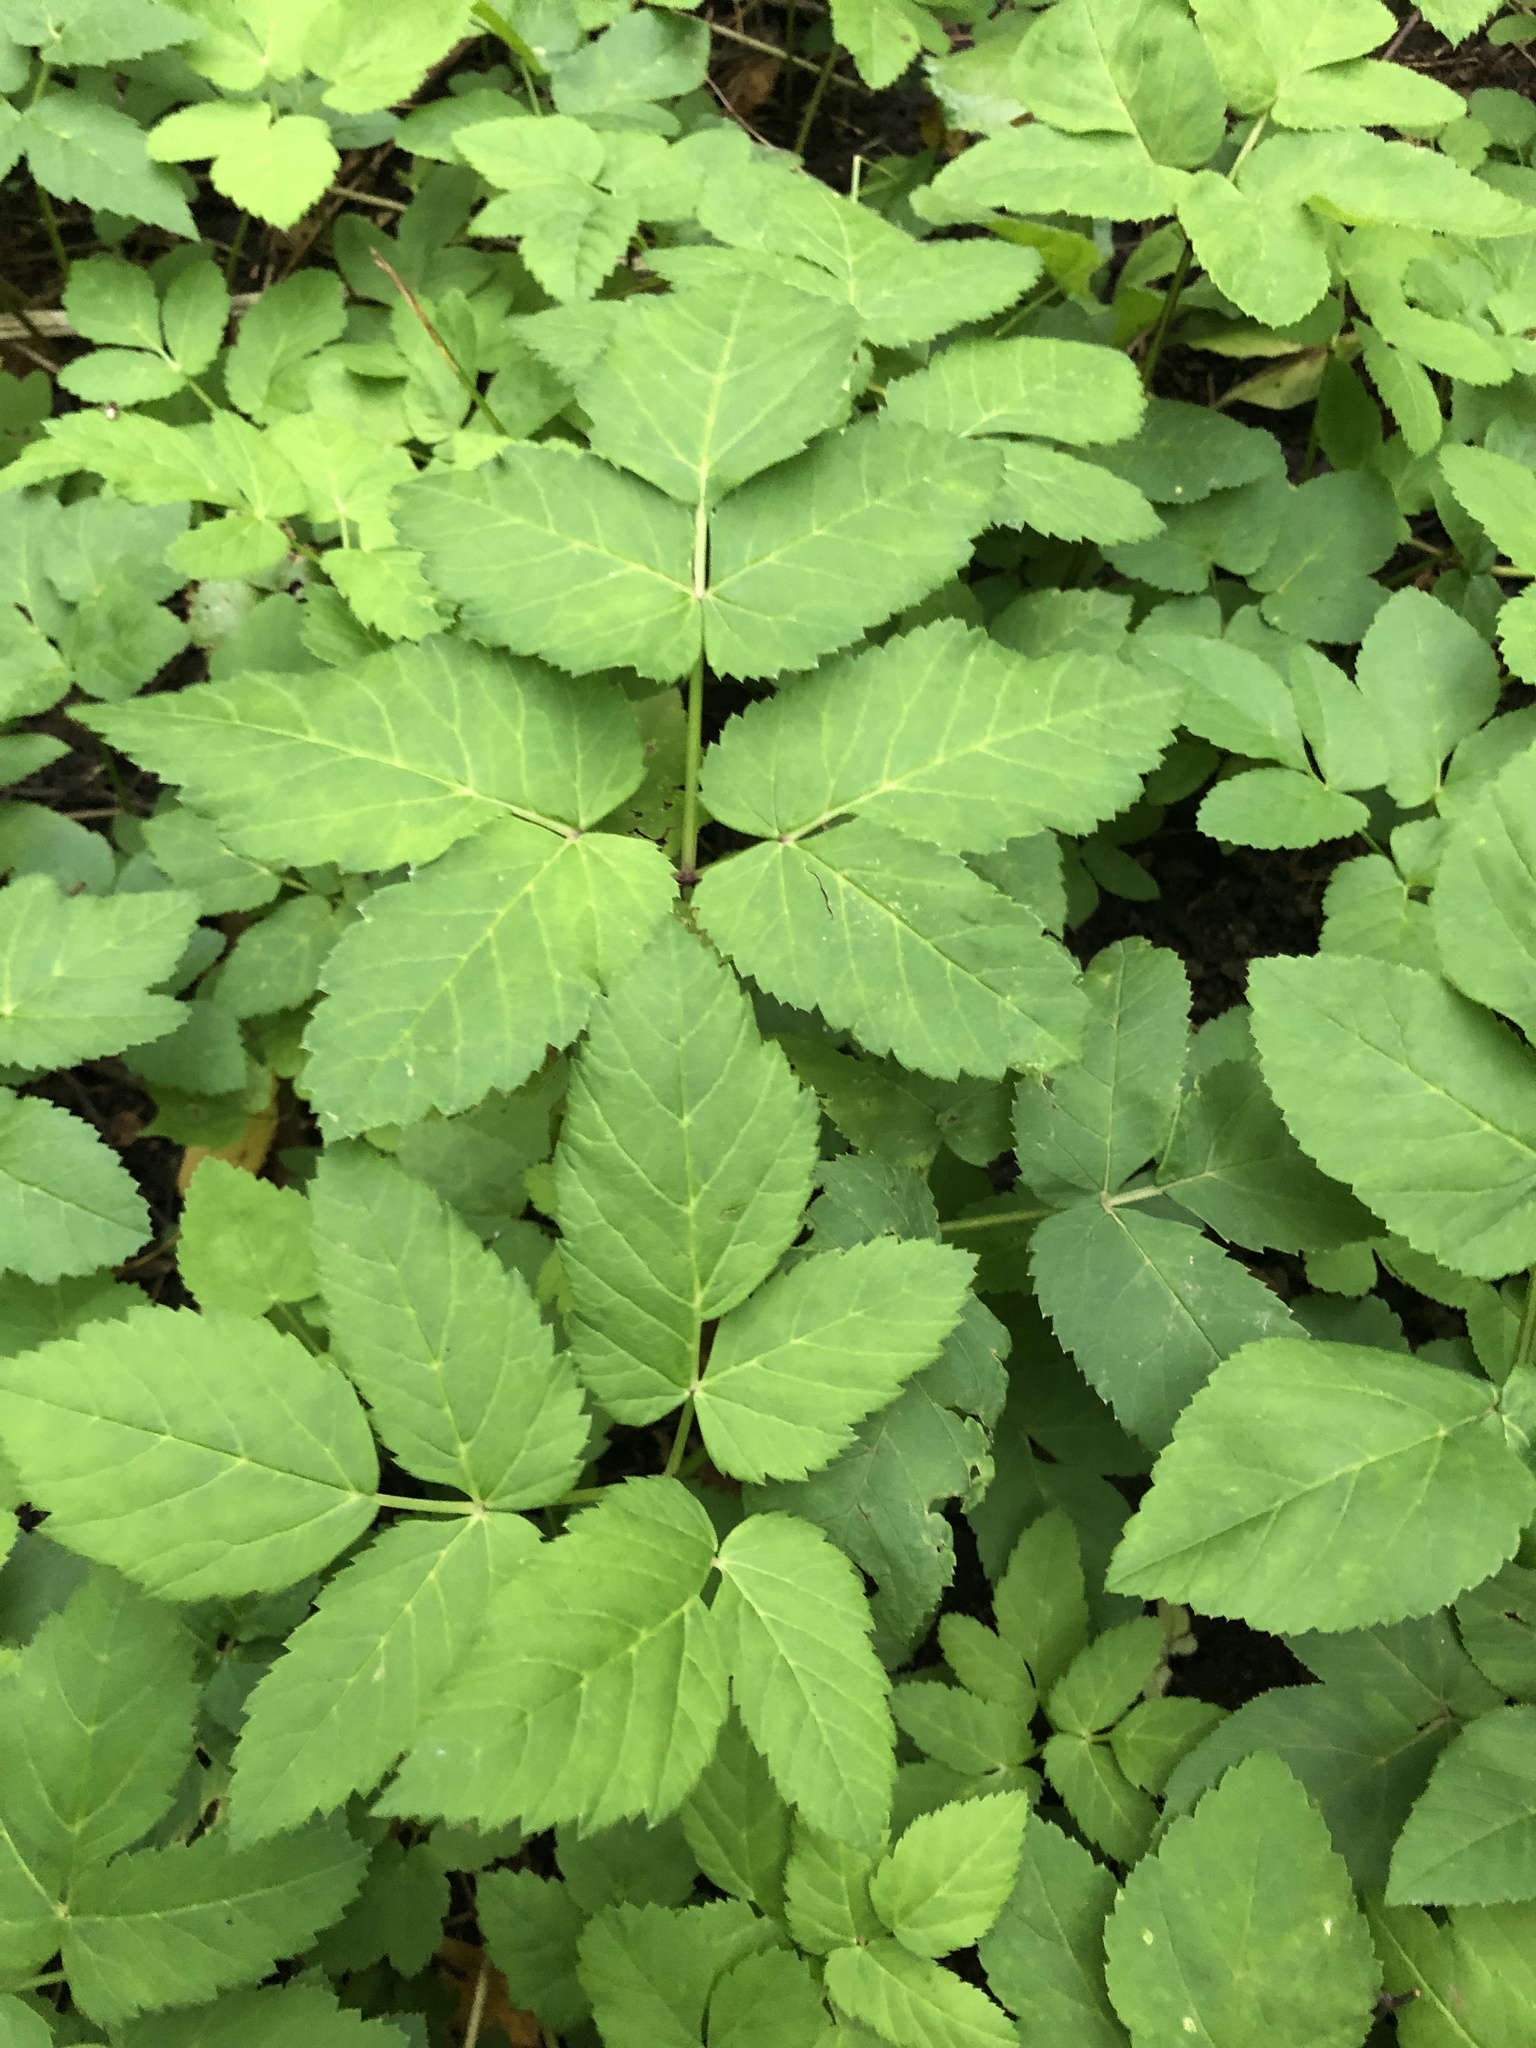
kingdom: Plantae
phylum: Tracheophyta
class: Magnoliopsida
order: Apiales
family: Apiaceae
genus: Aegopodium
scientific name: Aegopodium podagraria
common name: Ground-elder
